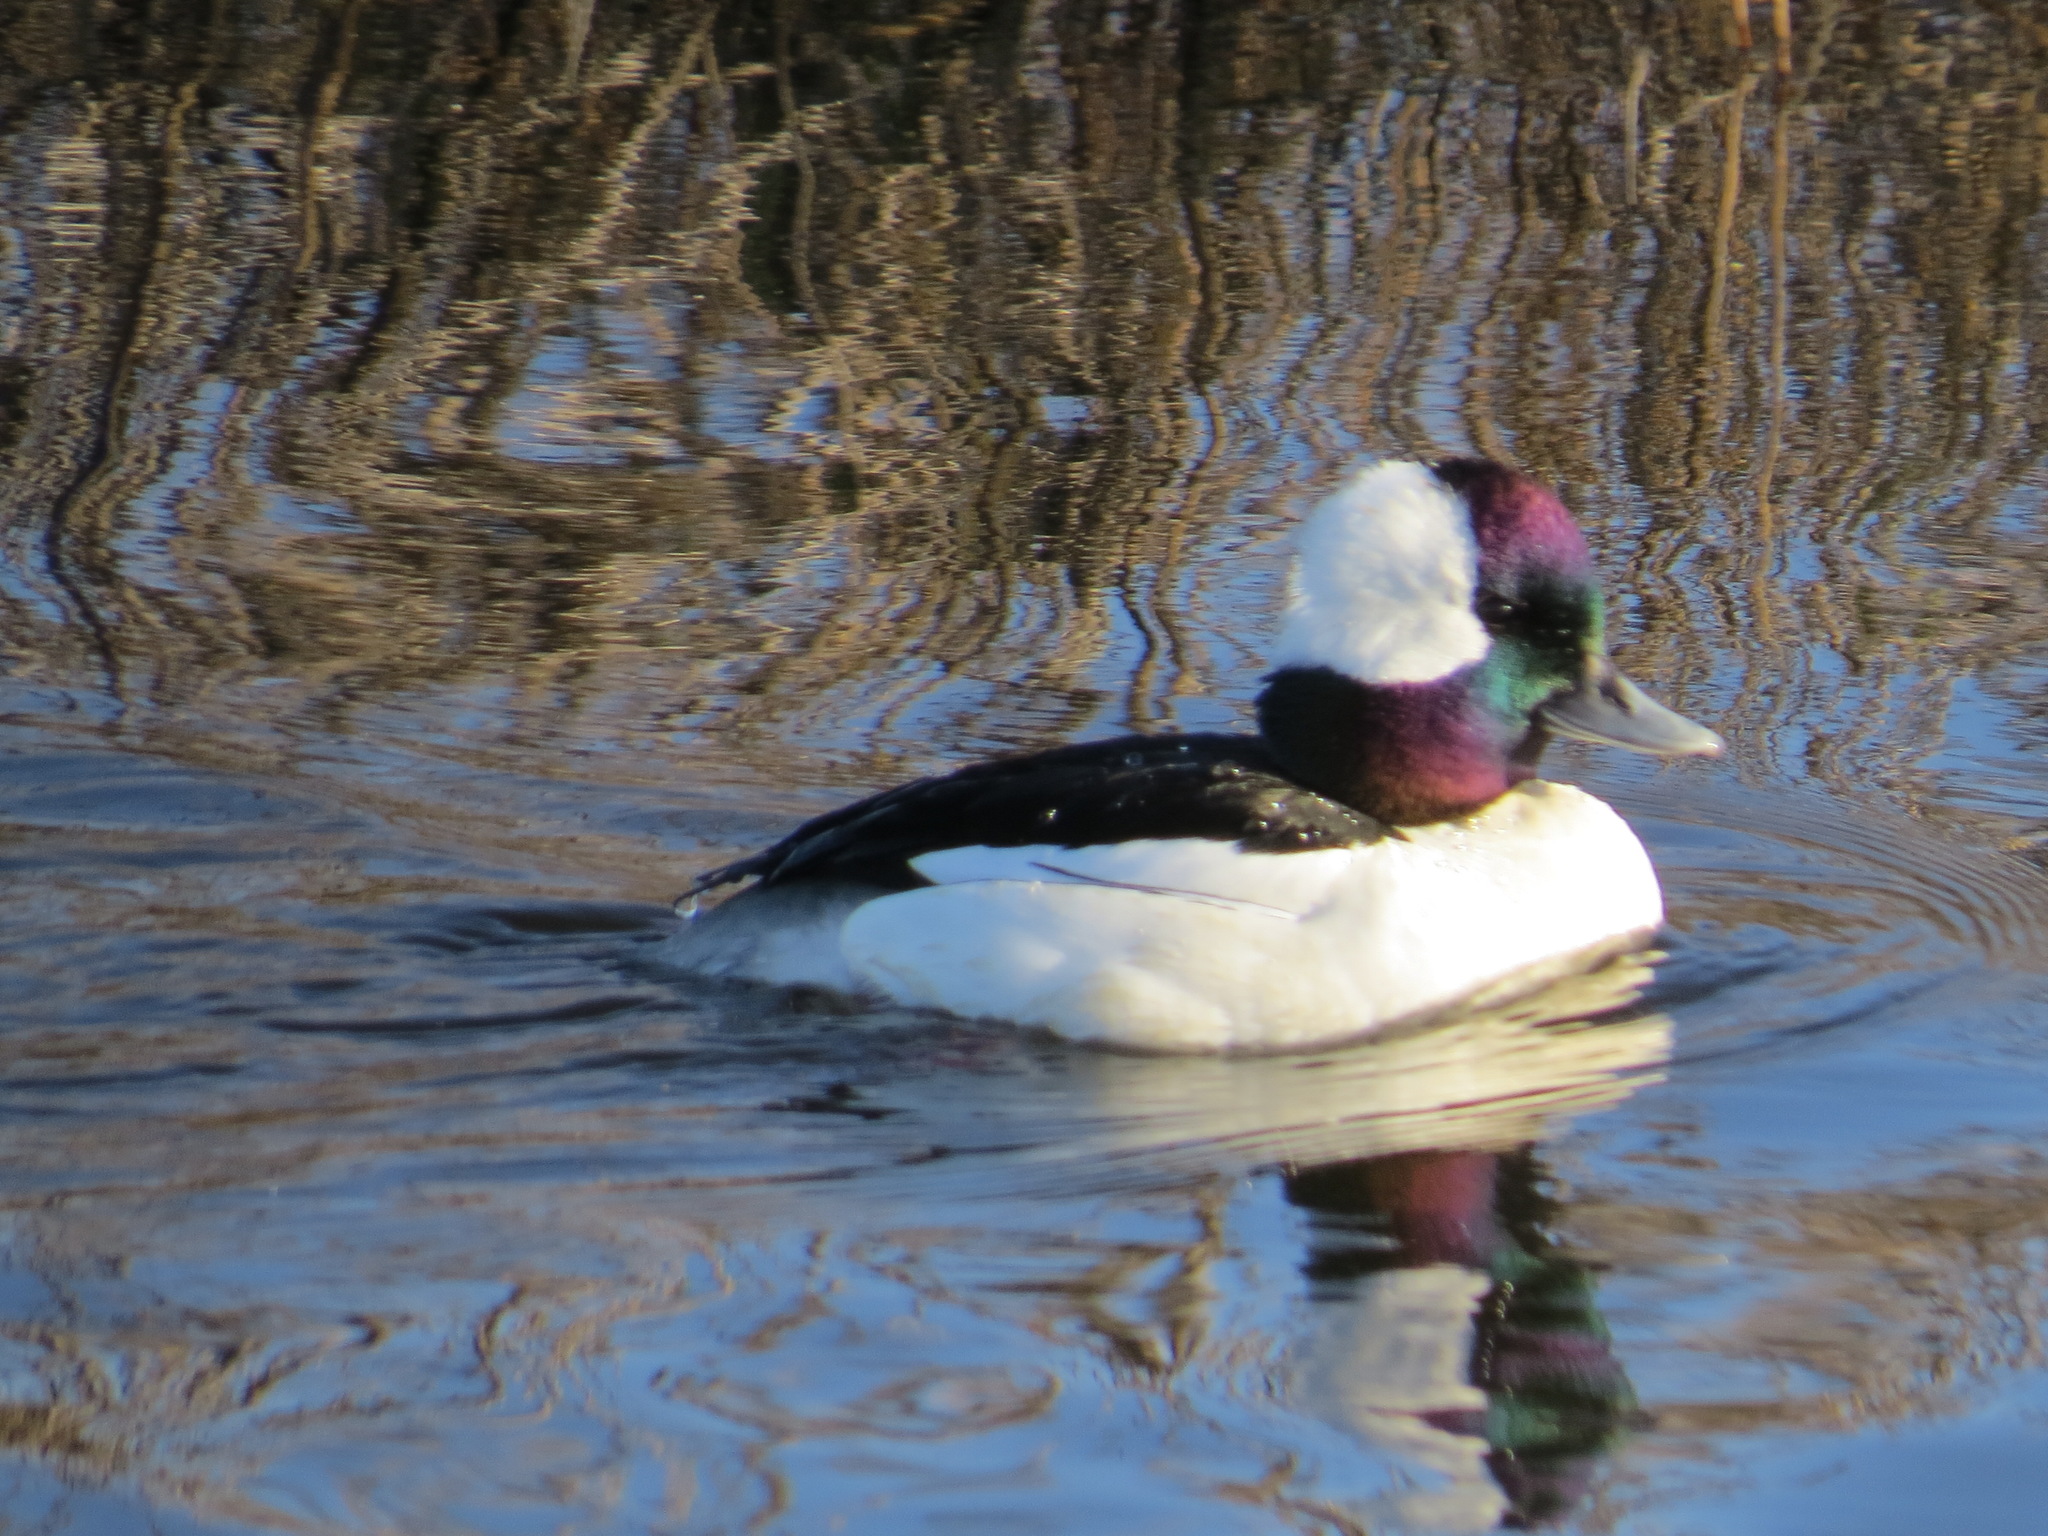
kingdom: Animalia
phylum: Chordata
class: Aves
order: Anseriformes
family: Anatidae
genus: Bucephala
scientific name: Bucephala albeola
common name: Bufflehead
